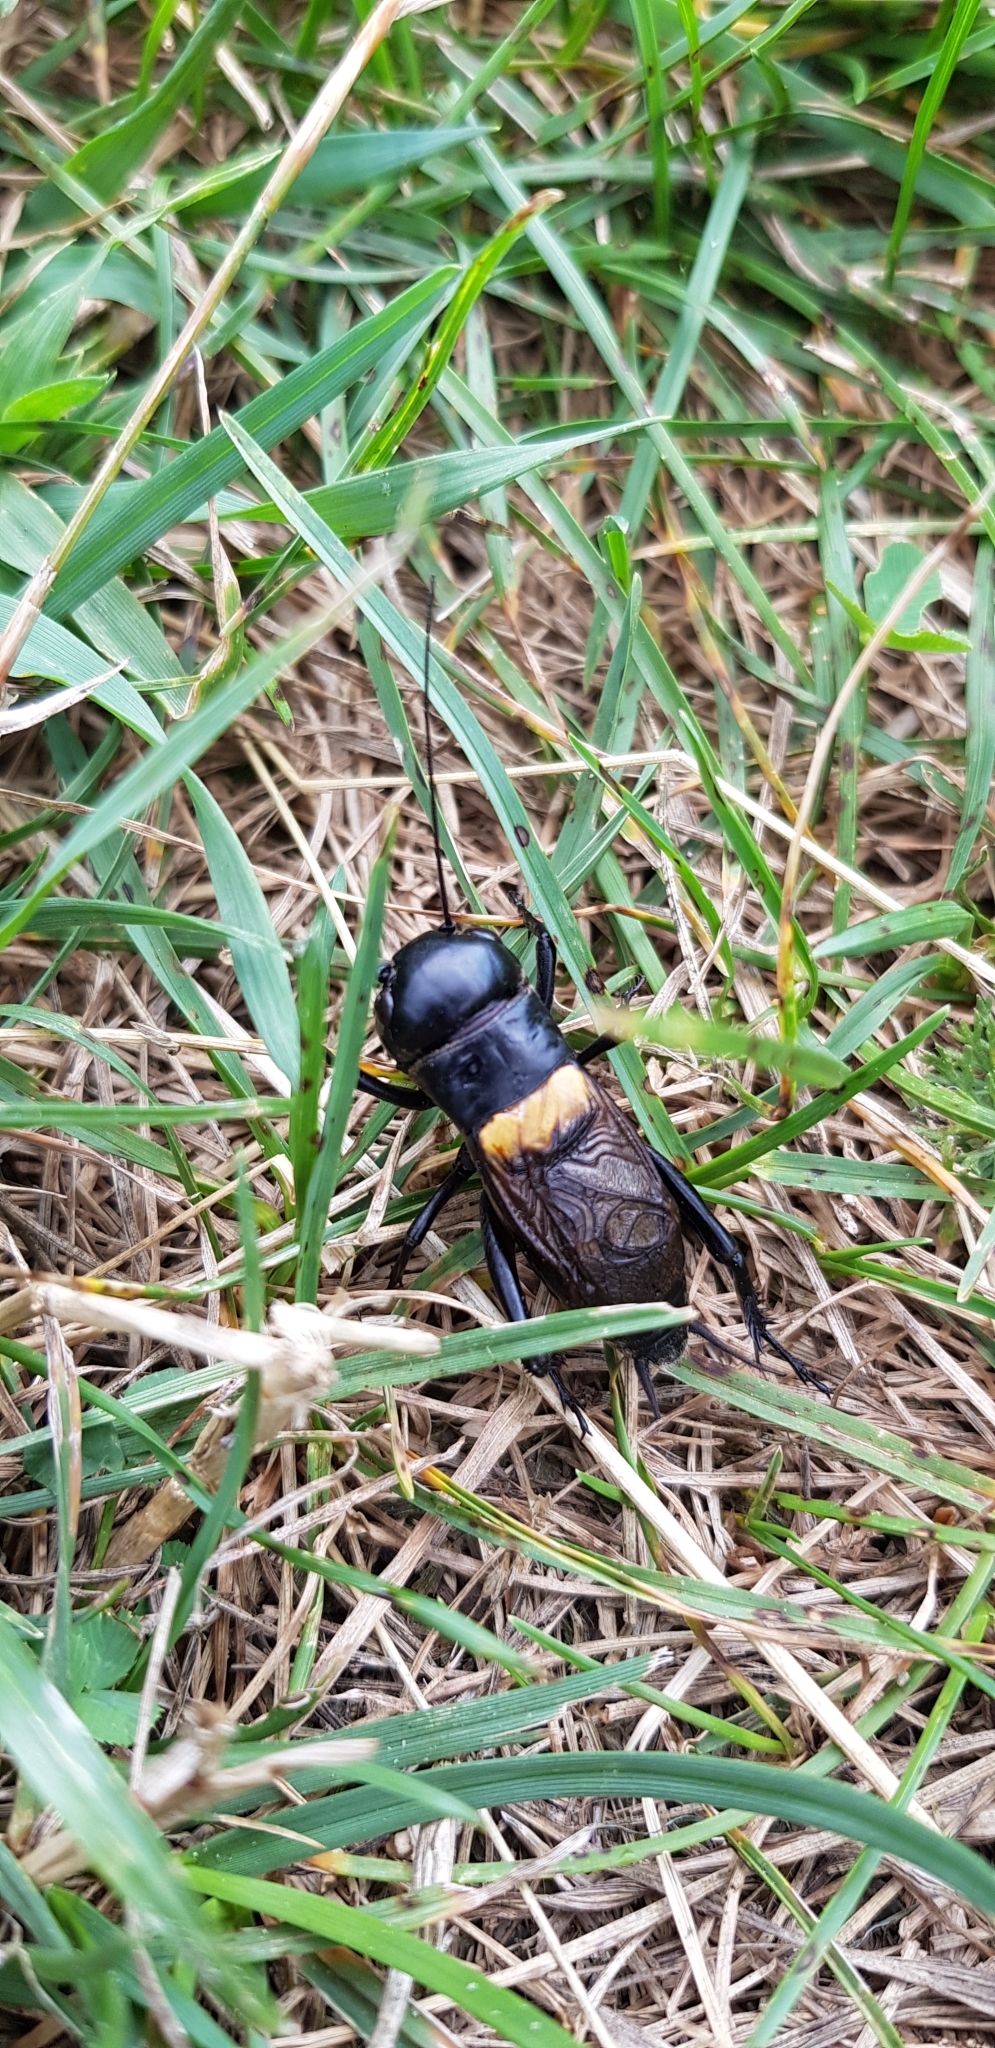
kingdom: Animalia
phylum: Arthropoda
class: Insecta
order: Orthoptera
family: Gryllidae
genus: Gryllus
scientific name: Gryllus campestris
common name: Field cricket
